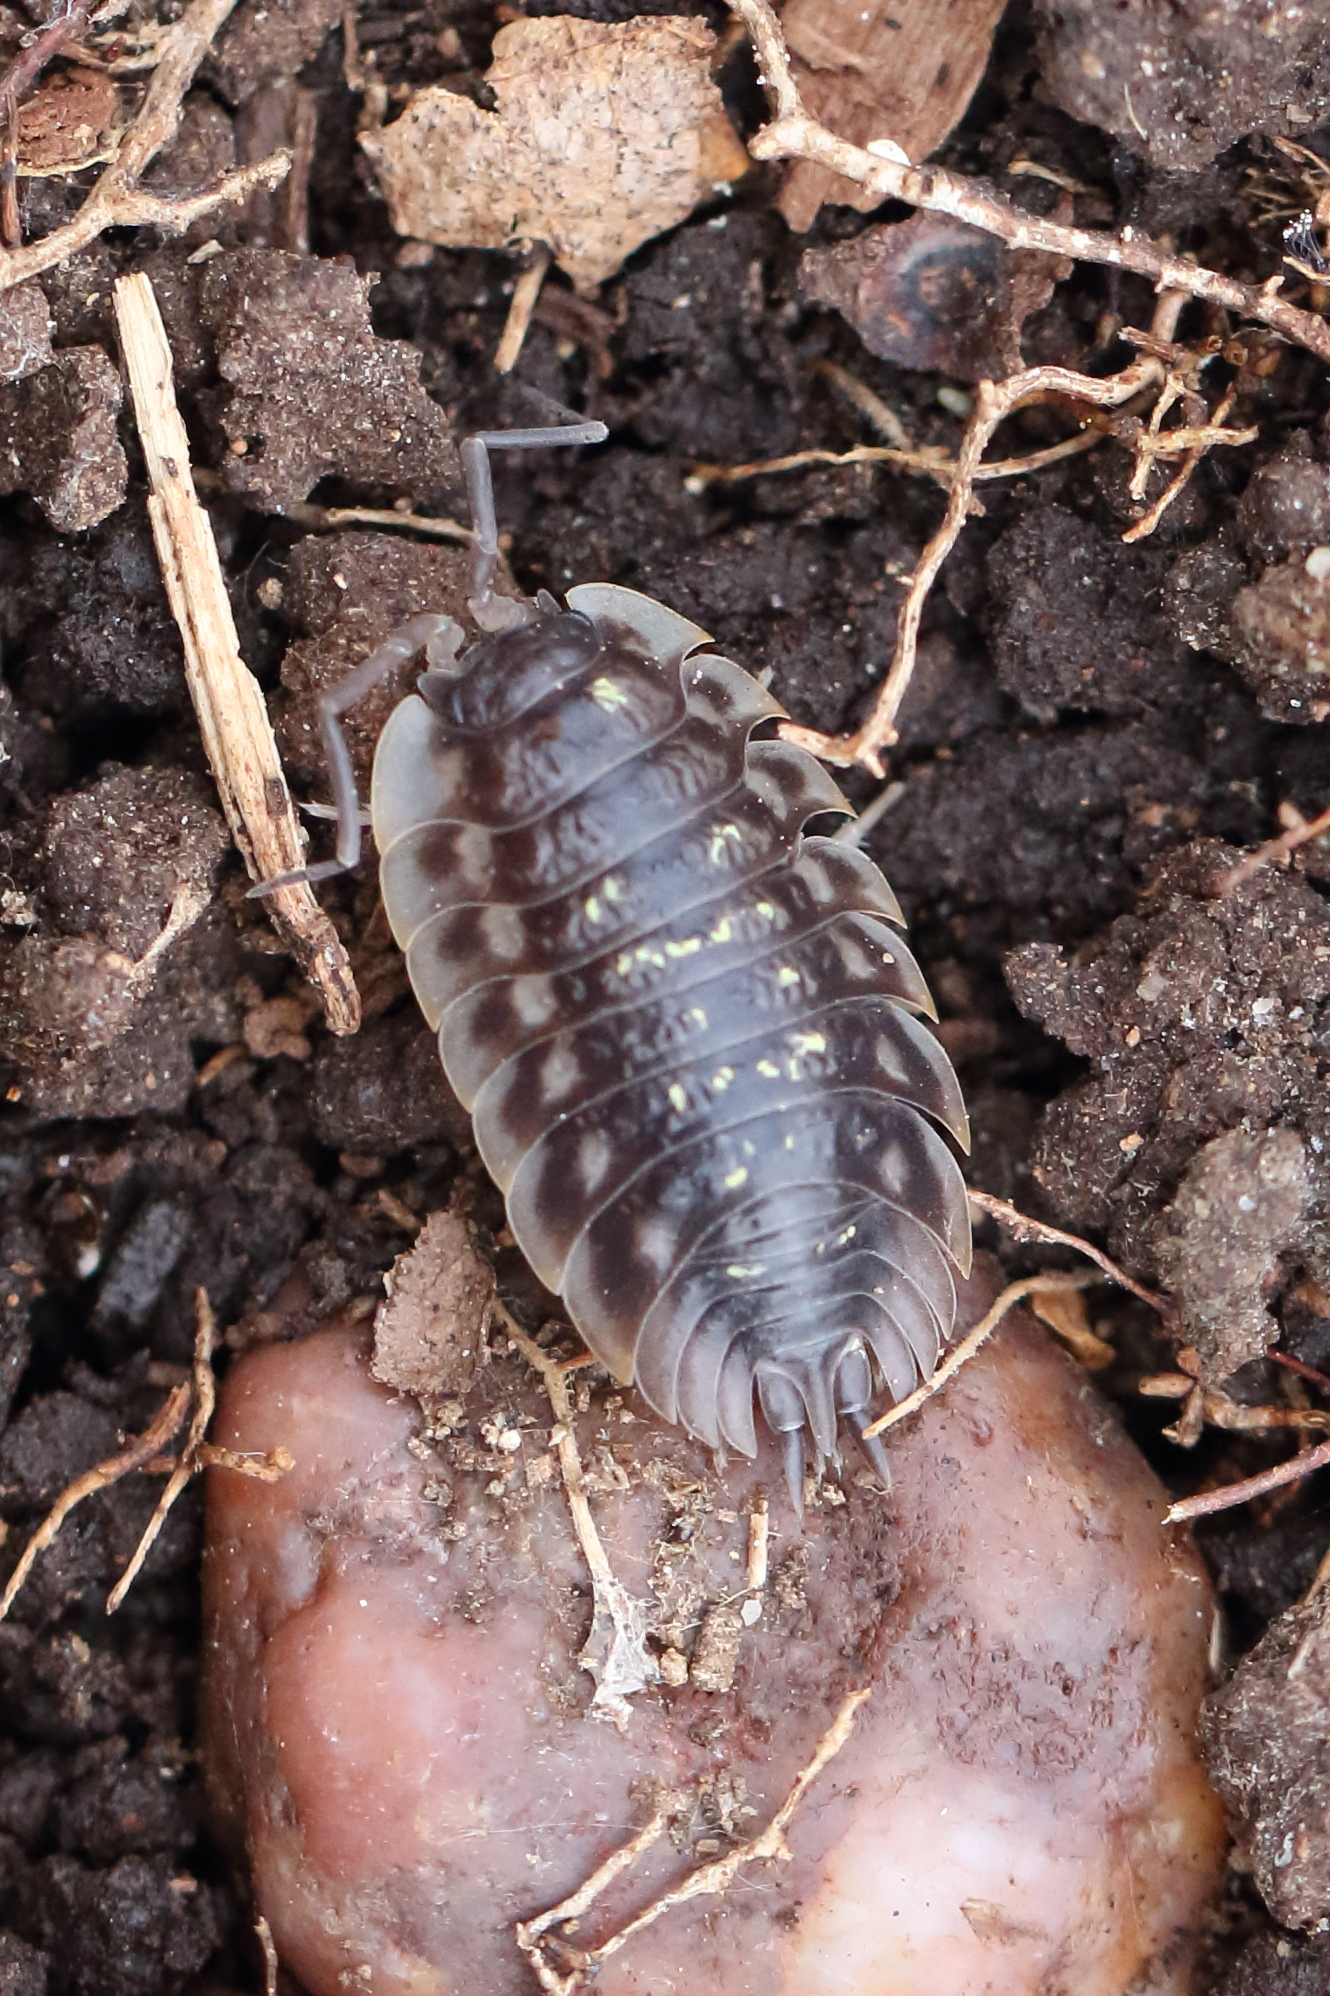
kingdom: Animalia
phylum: Arthropoda
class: Malacostraca
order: Isopoda
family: Oniscidae
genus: Oniscus
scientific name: Oniscus asellus
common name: Common shiny woodlouse
